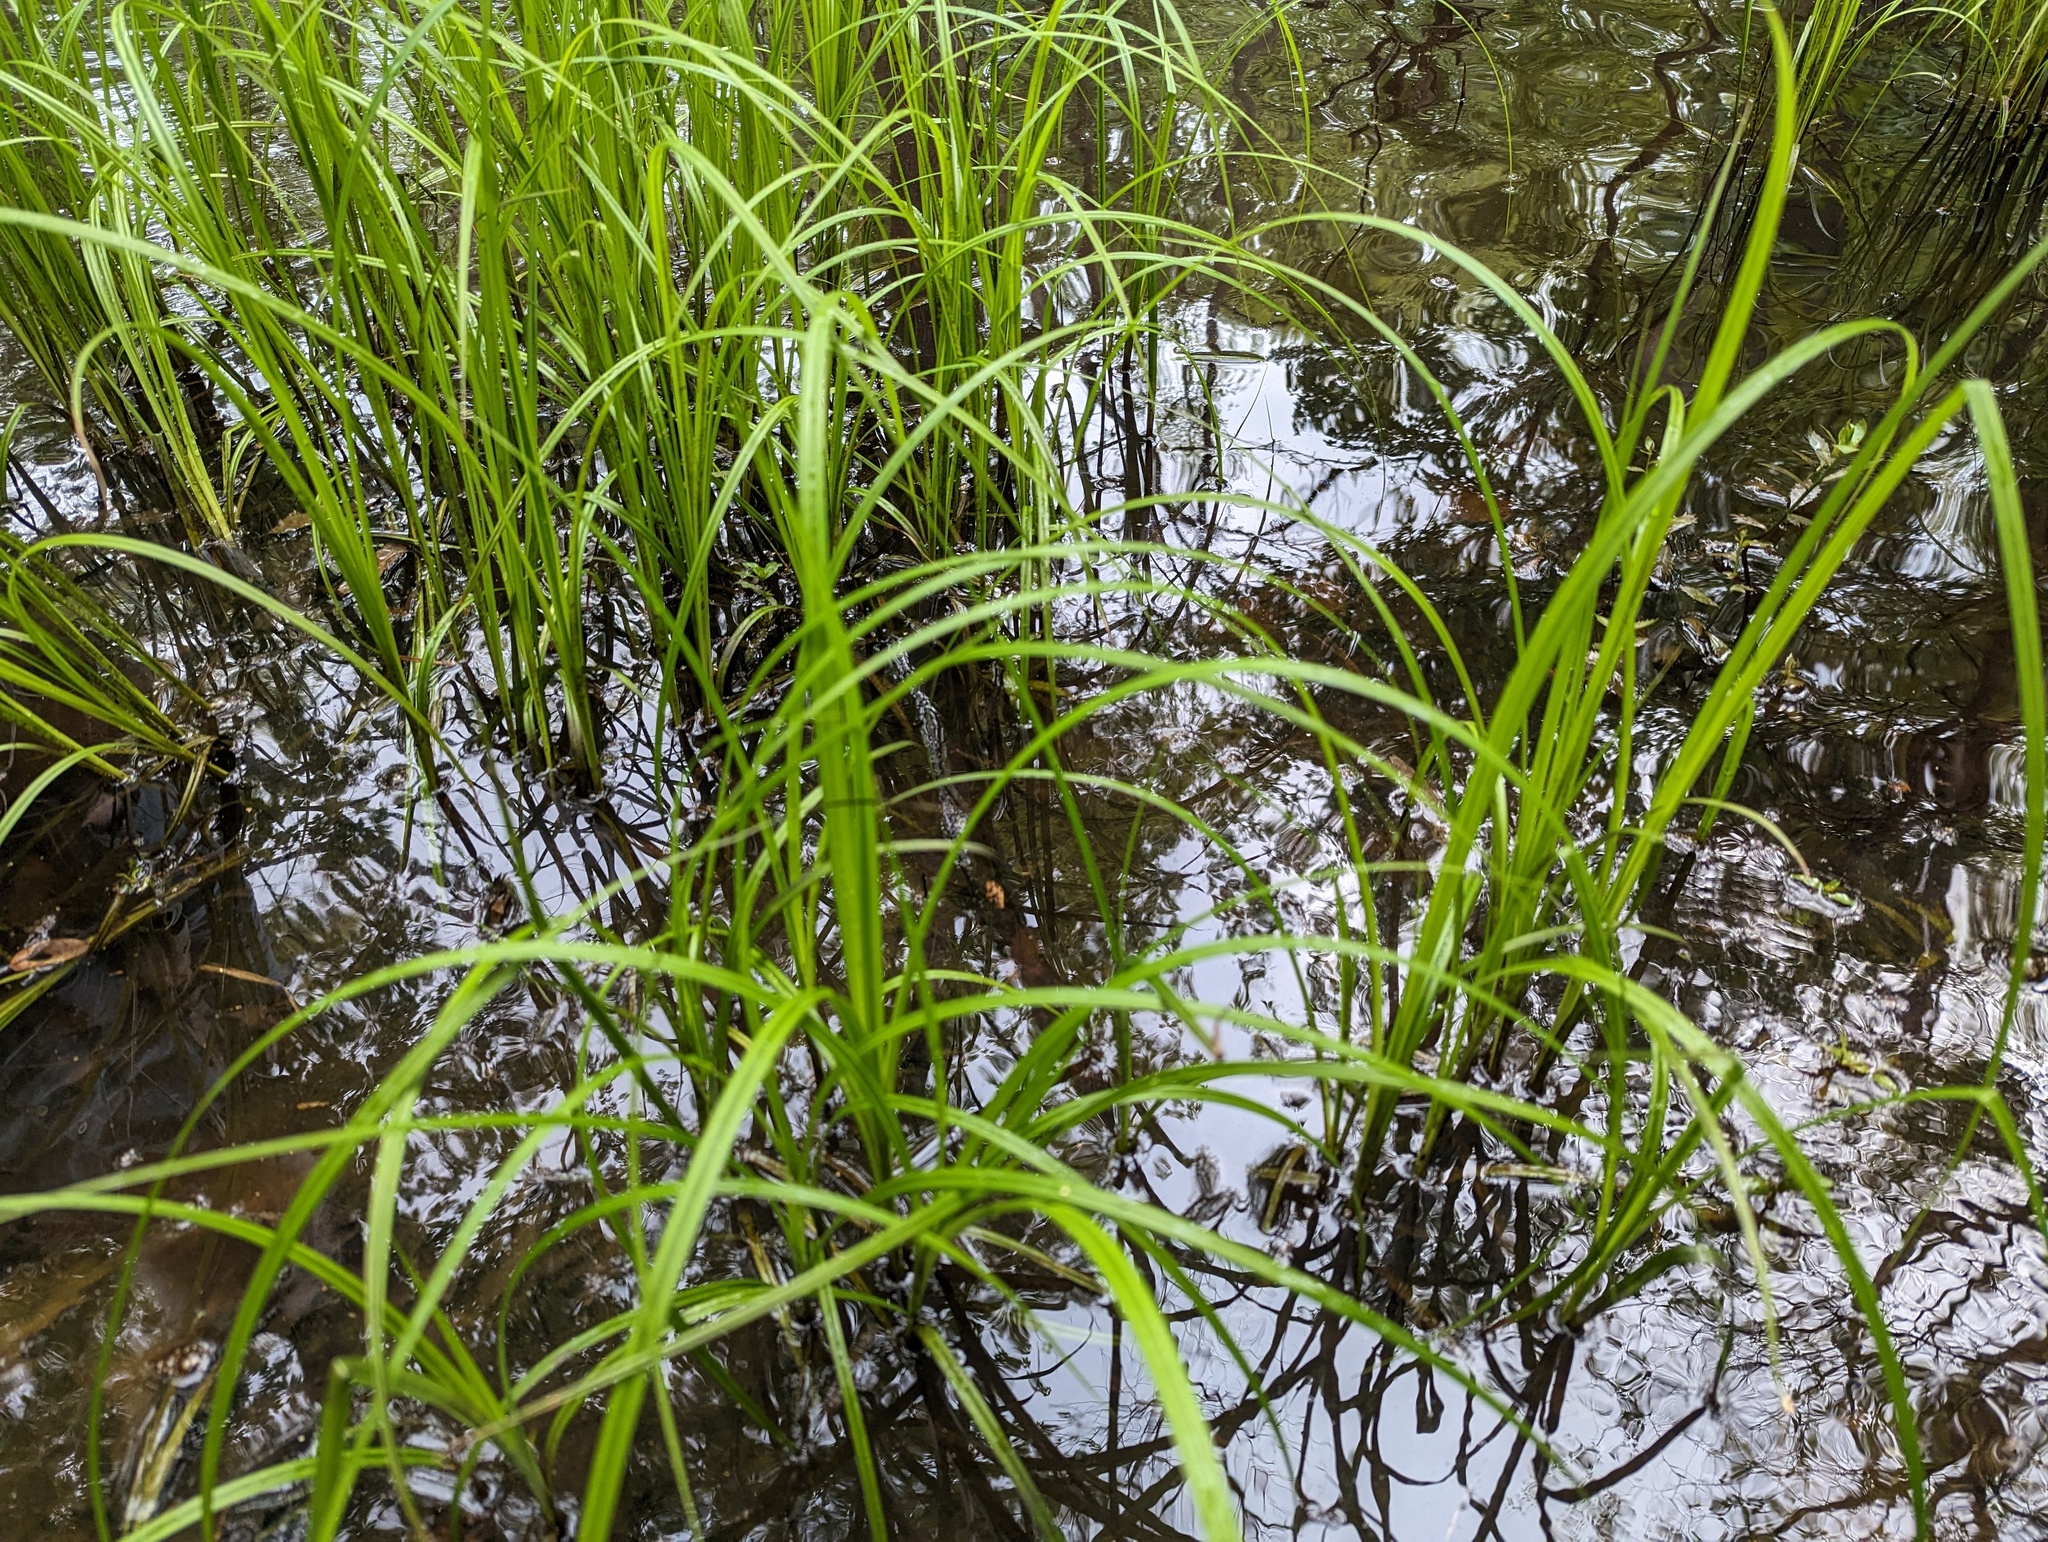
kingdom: Plantae
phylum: Tracheophyta
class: Liliopsida
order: Poales
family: Cyperaceae
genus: Carex
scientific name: Carex
